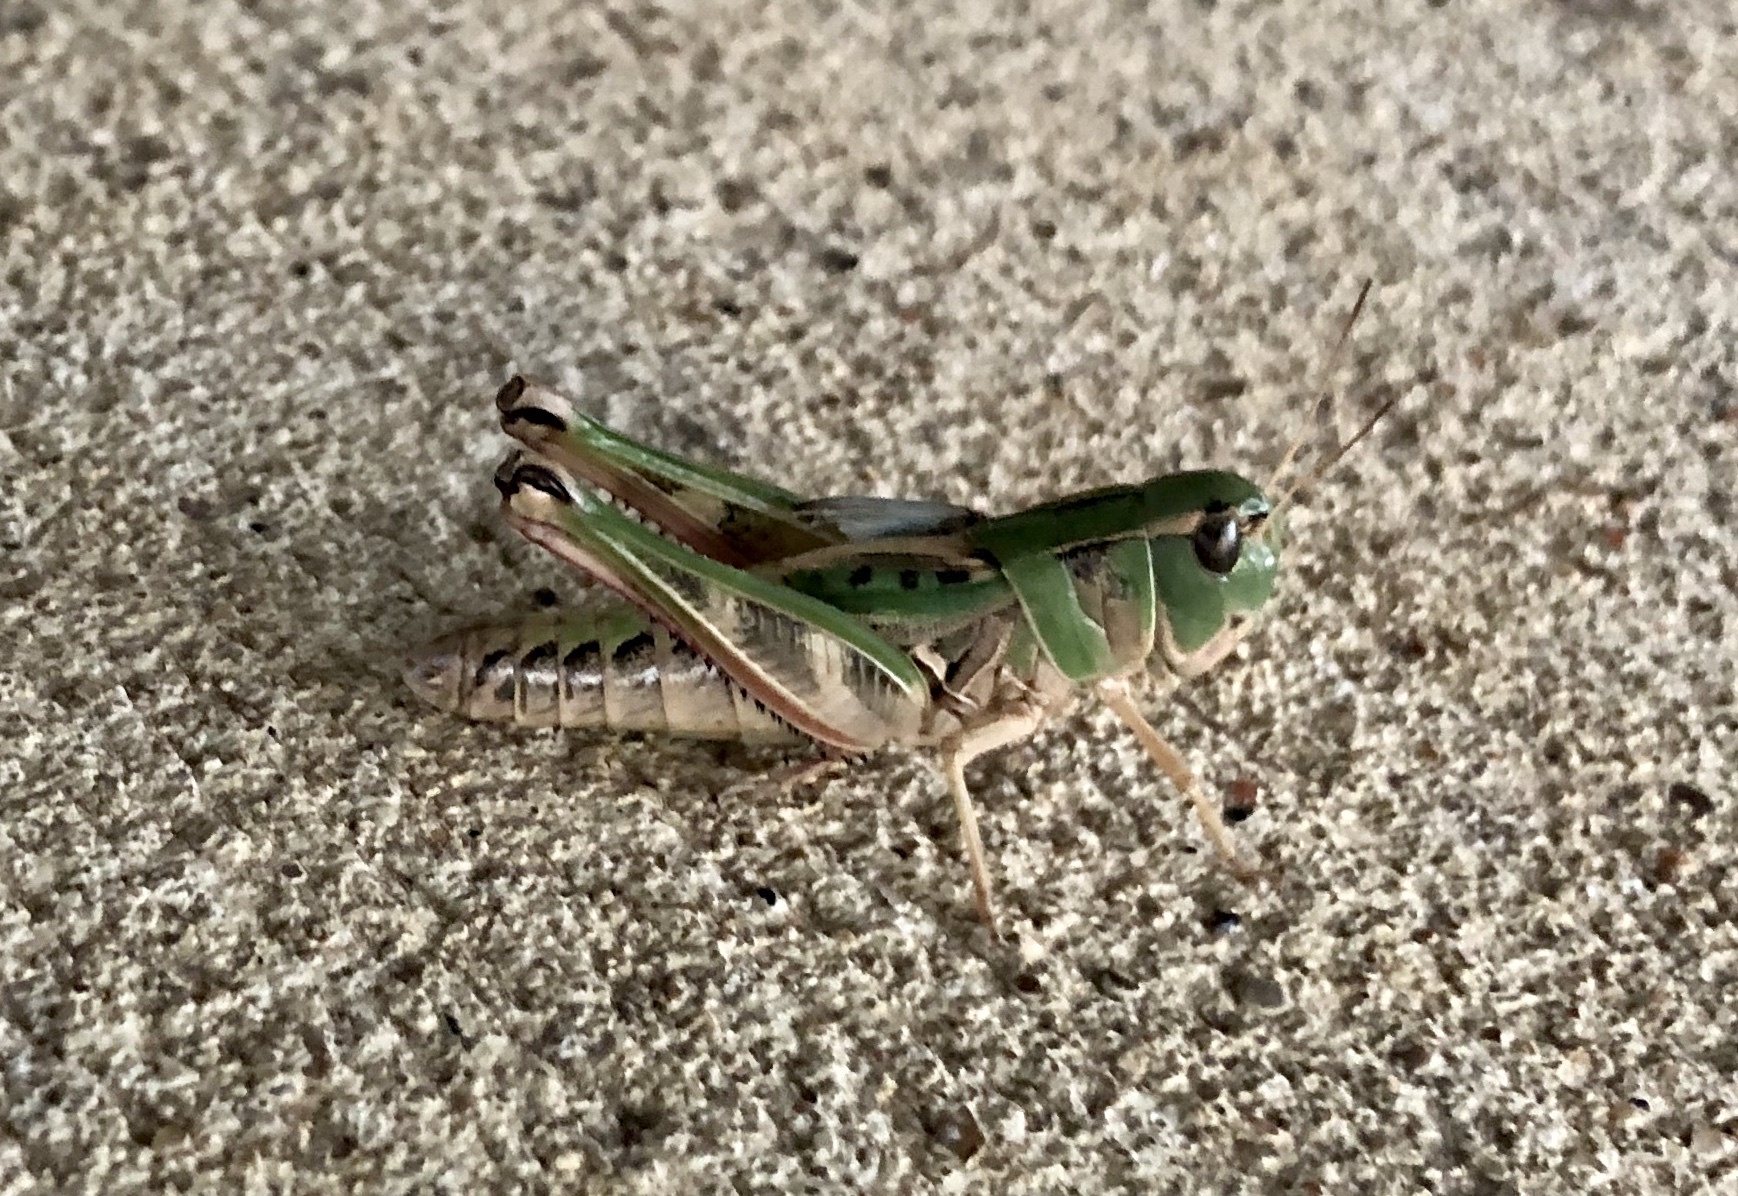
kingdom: Animalia
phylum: Arthropoda
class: Insecta
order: Orthoptera
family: Acrididae
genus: Boopedon
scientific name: Boopedon gracile
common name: Graceful range grasshopper
